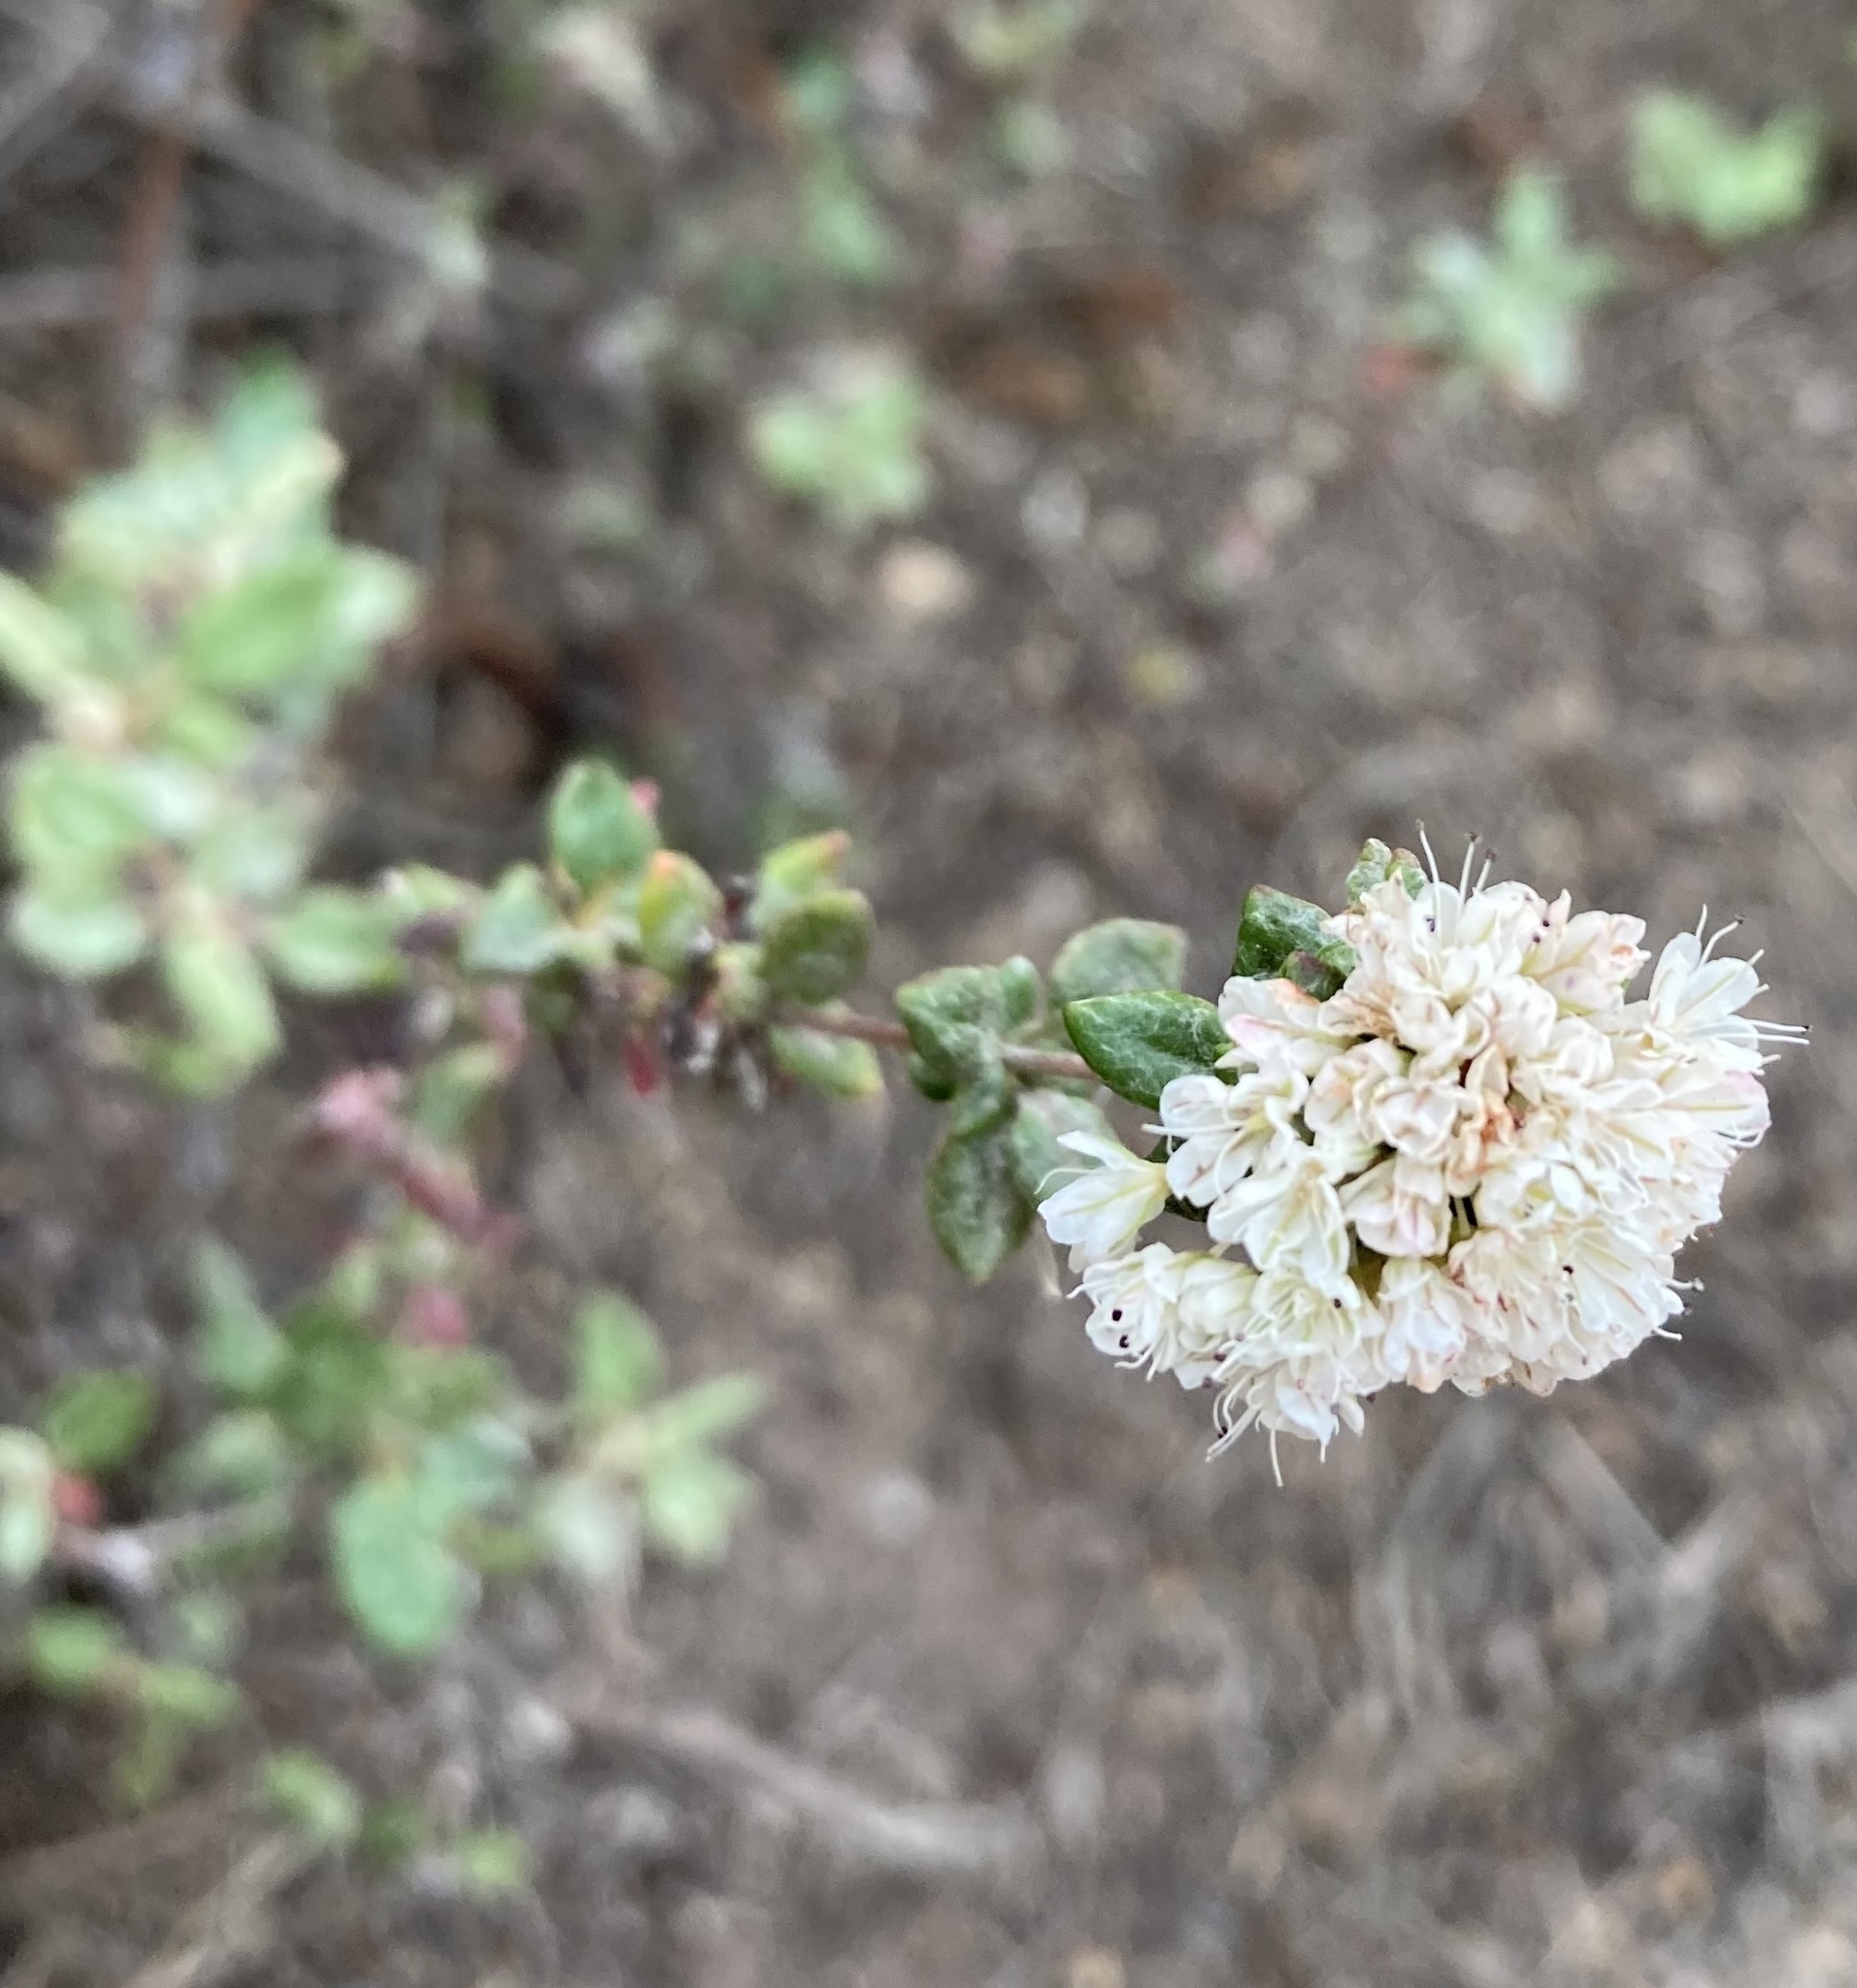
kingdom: Plantae
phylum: Tracheophyta
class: Magnoliopsida
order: Caryophyllales
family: Polygonaceae
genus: Eriogonum
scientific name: Eriogonum parvifolium
